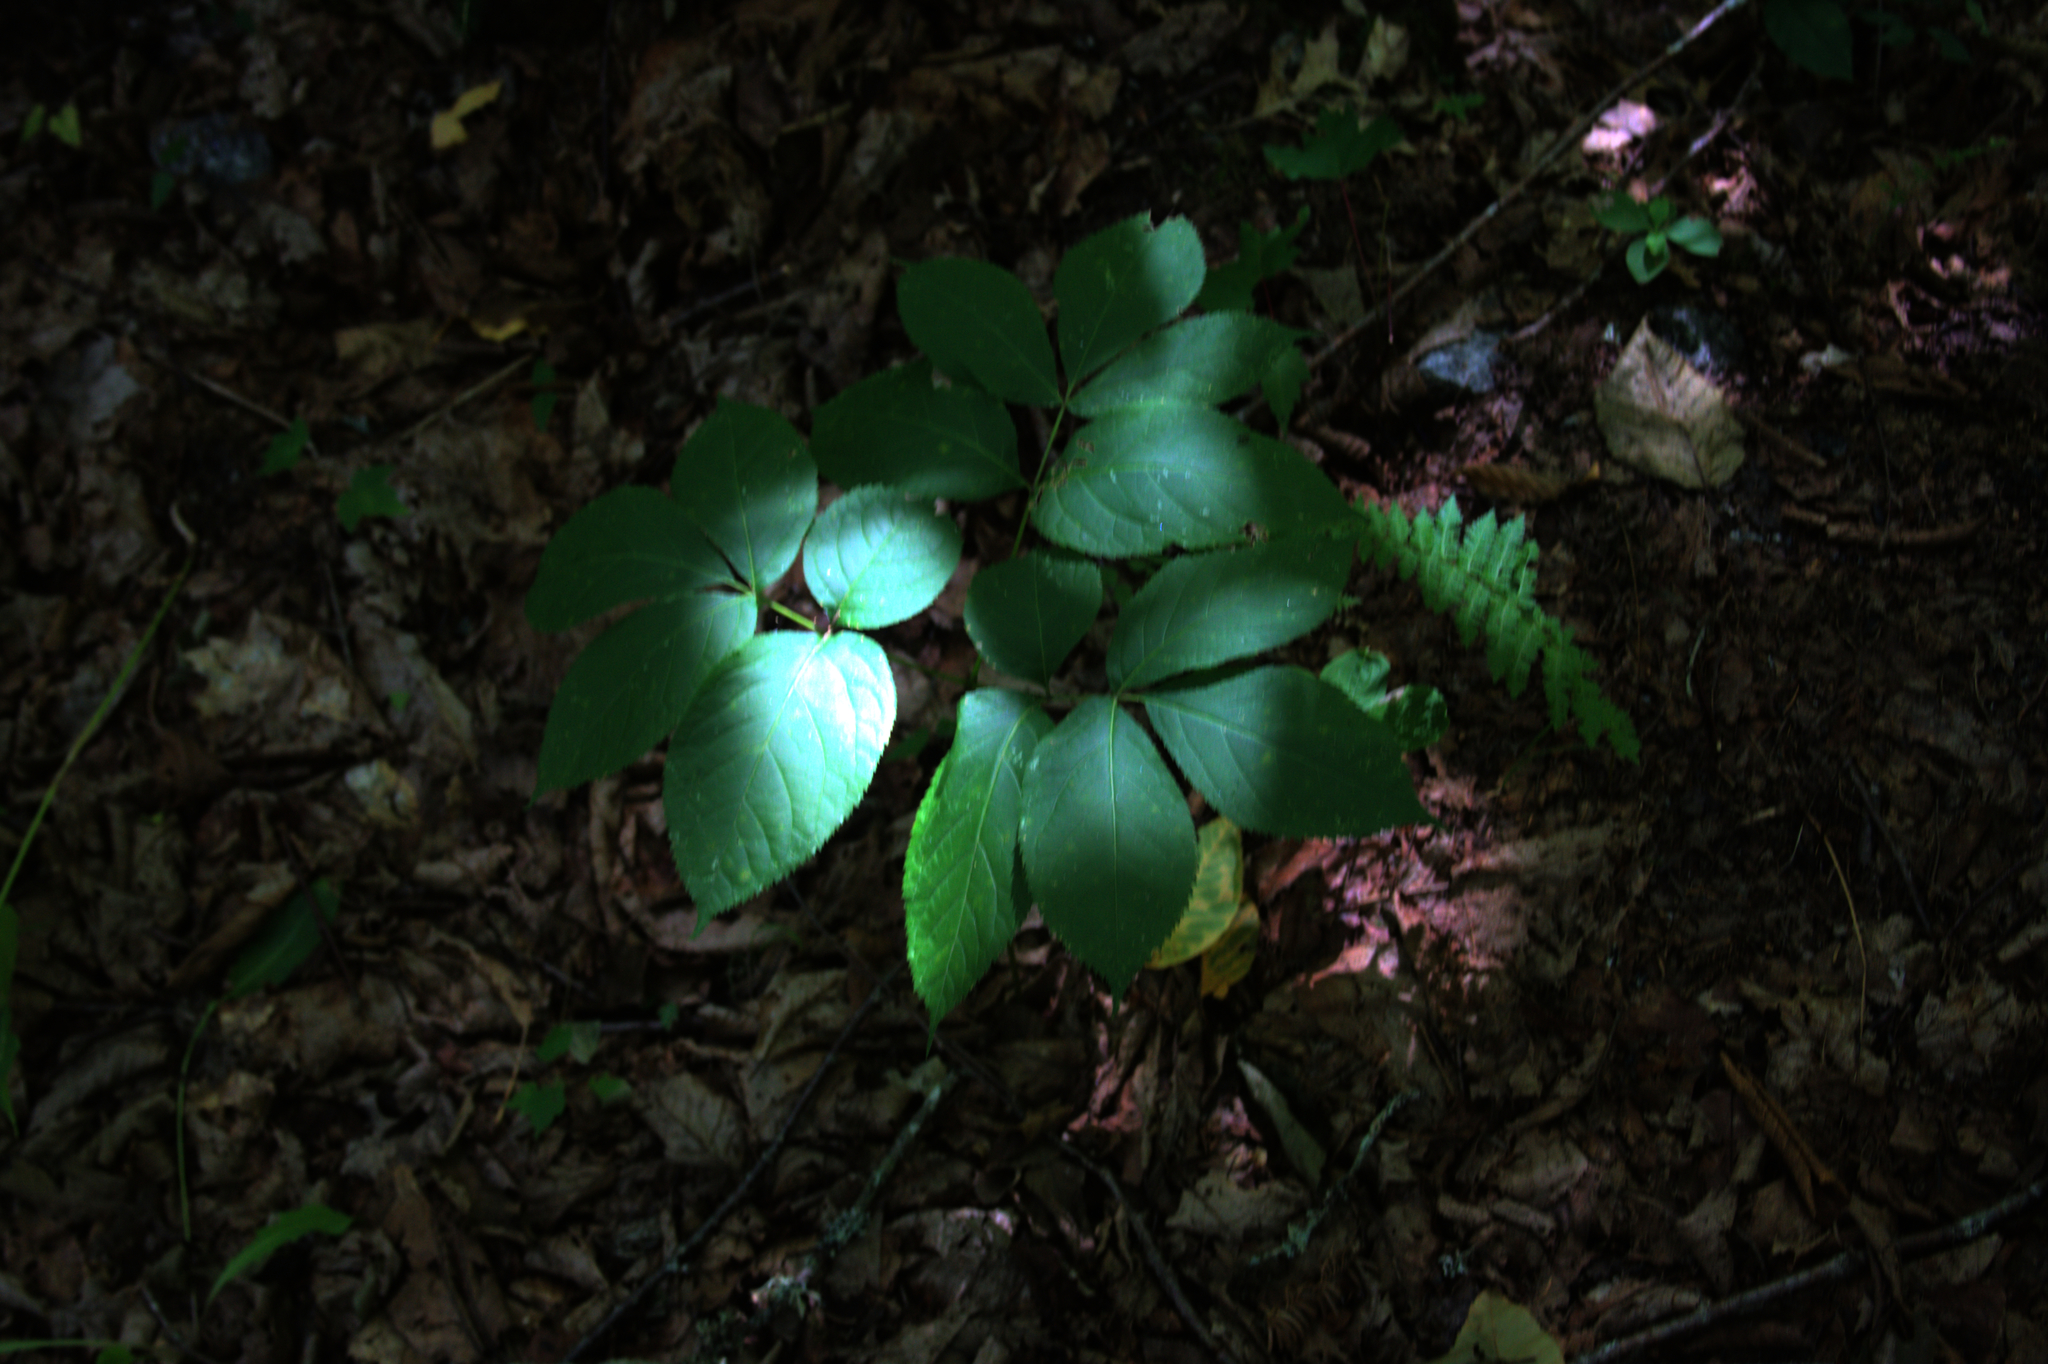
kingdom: Plantae
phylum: Tracheophyta
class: Magnoliopsida
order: Apiales
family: Araliaceae
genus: Aralia
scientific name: Aralia nudicaulis
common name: Wild sarsaparilla
